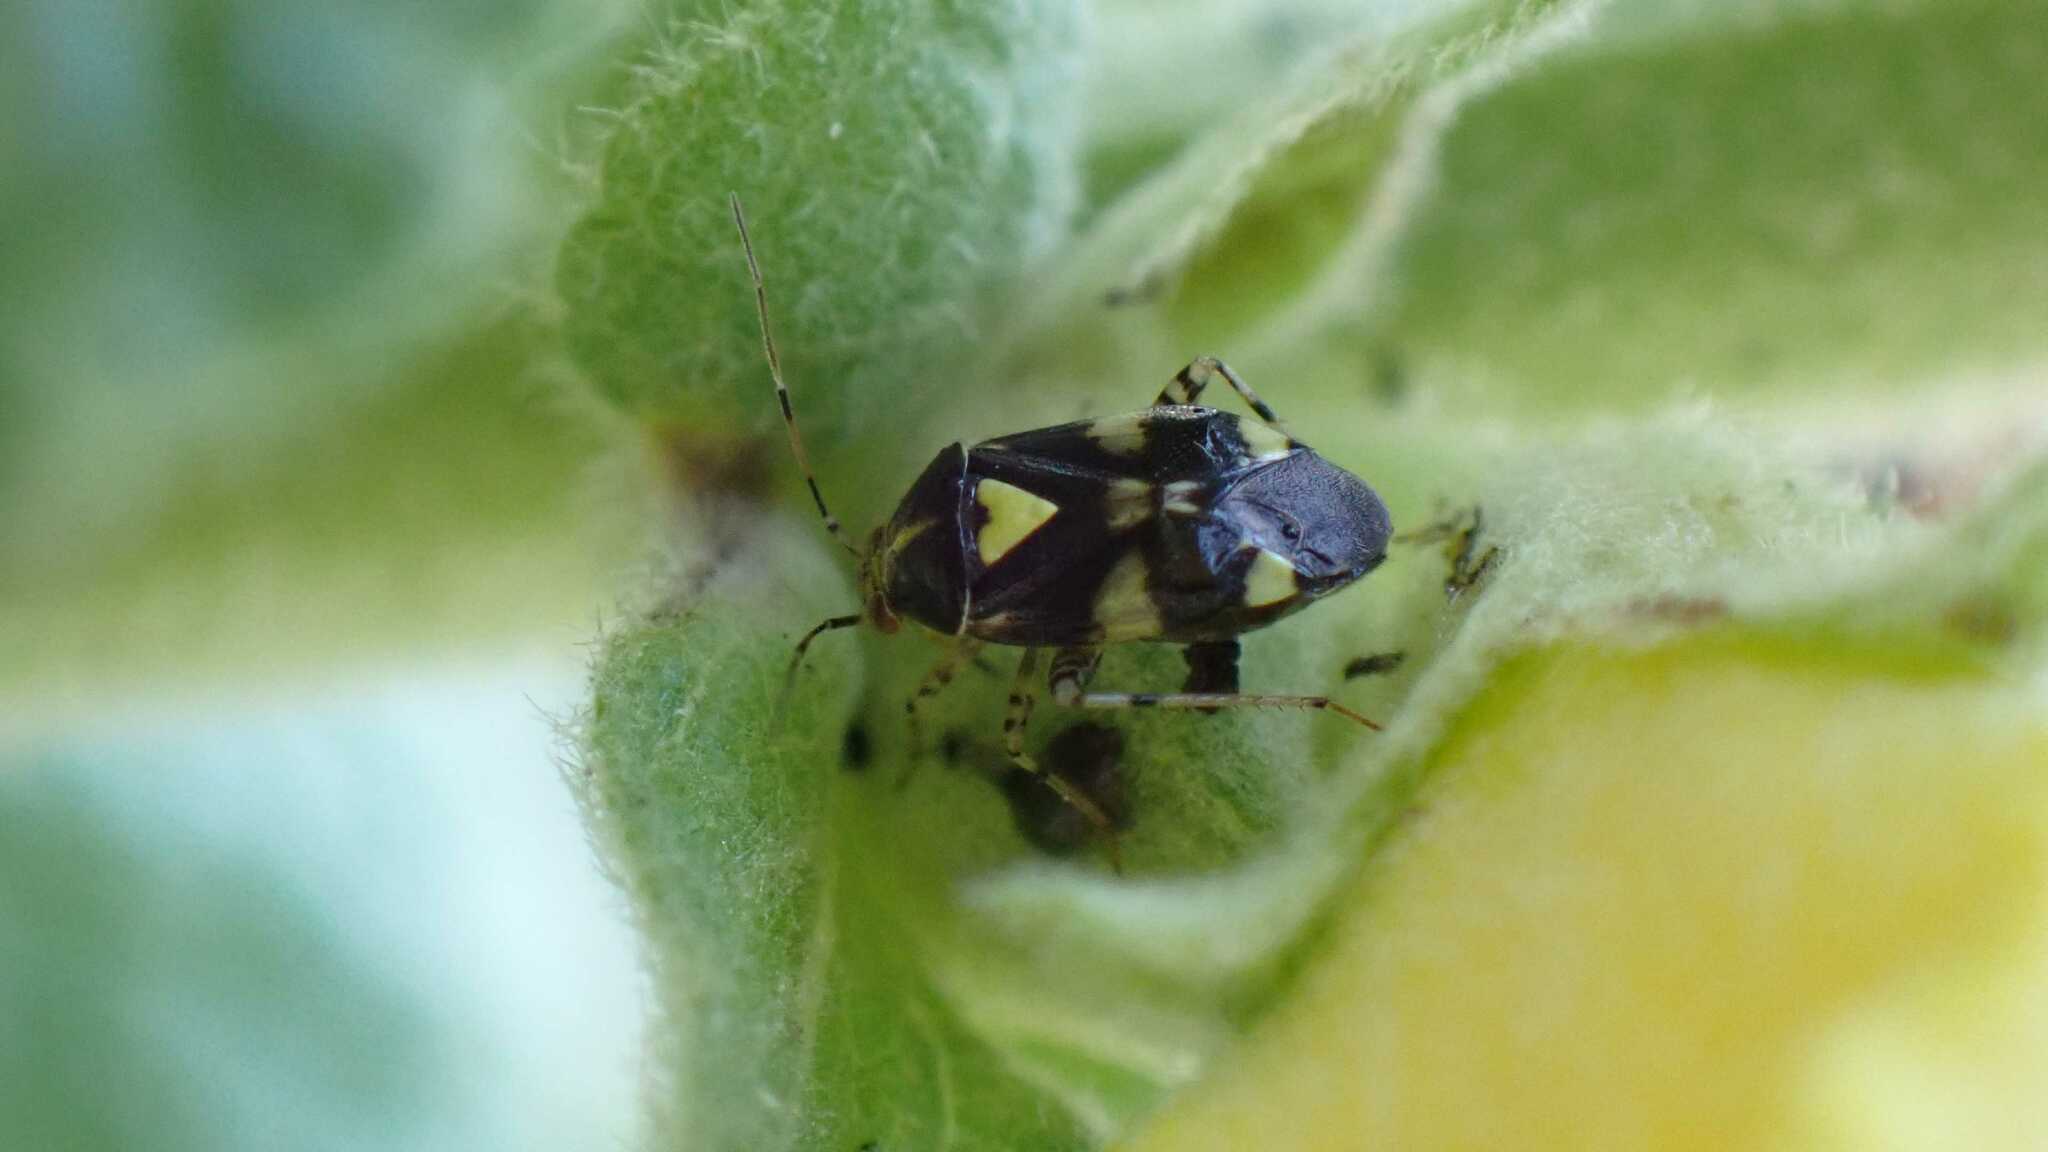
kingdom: Animalia
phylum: Arthropoda
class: Insecta
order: Hemiptera
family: Miridae
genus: Liocoris
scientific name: Liocoris tripustulatus
